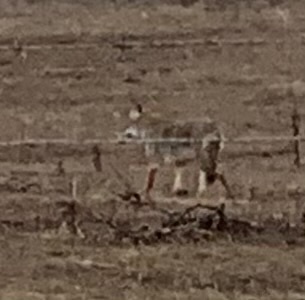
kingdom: Animalia
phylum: Chordata
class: Mammalia
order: Carnivora
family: Canidae
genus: Canis
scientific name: Canis latrans
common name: Coyote
